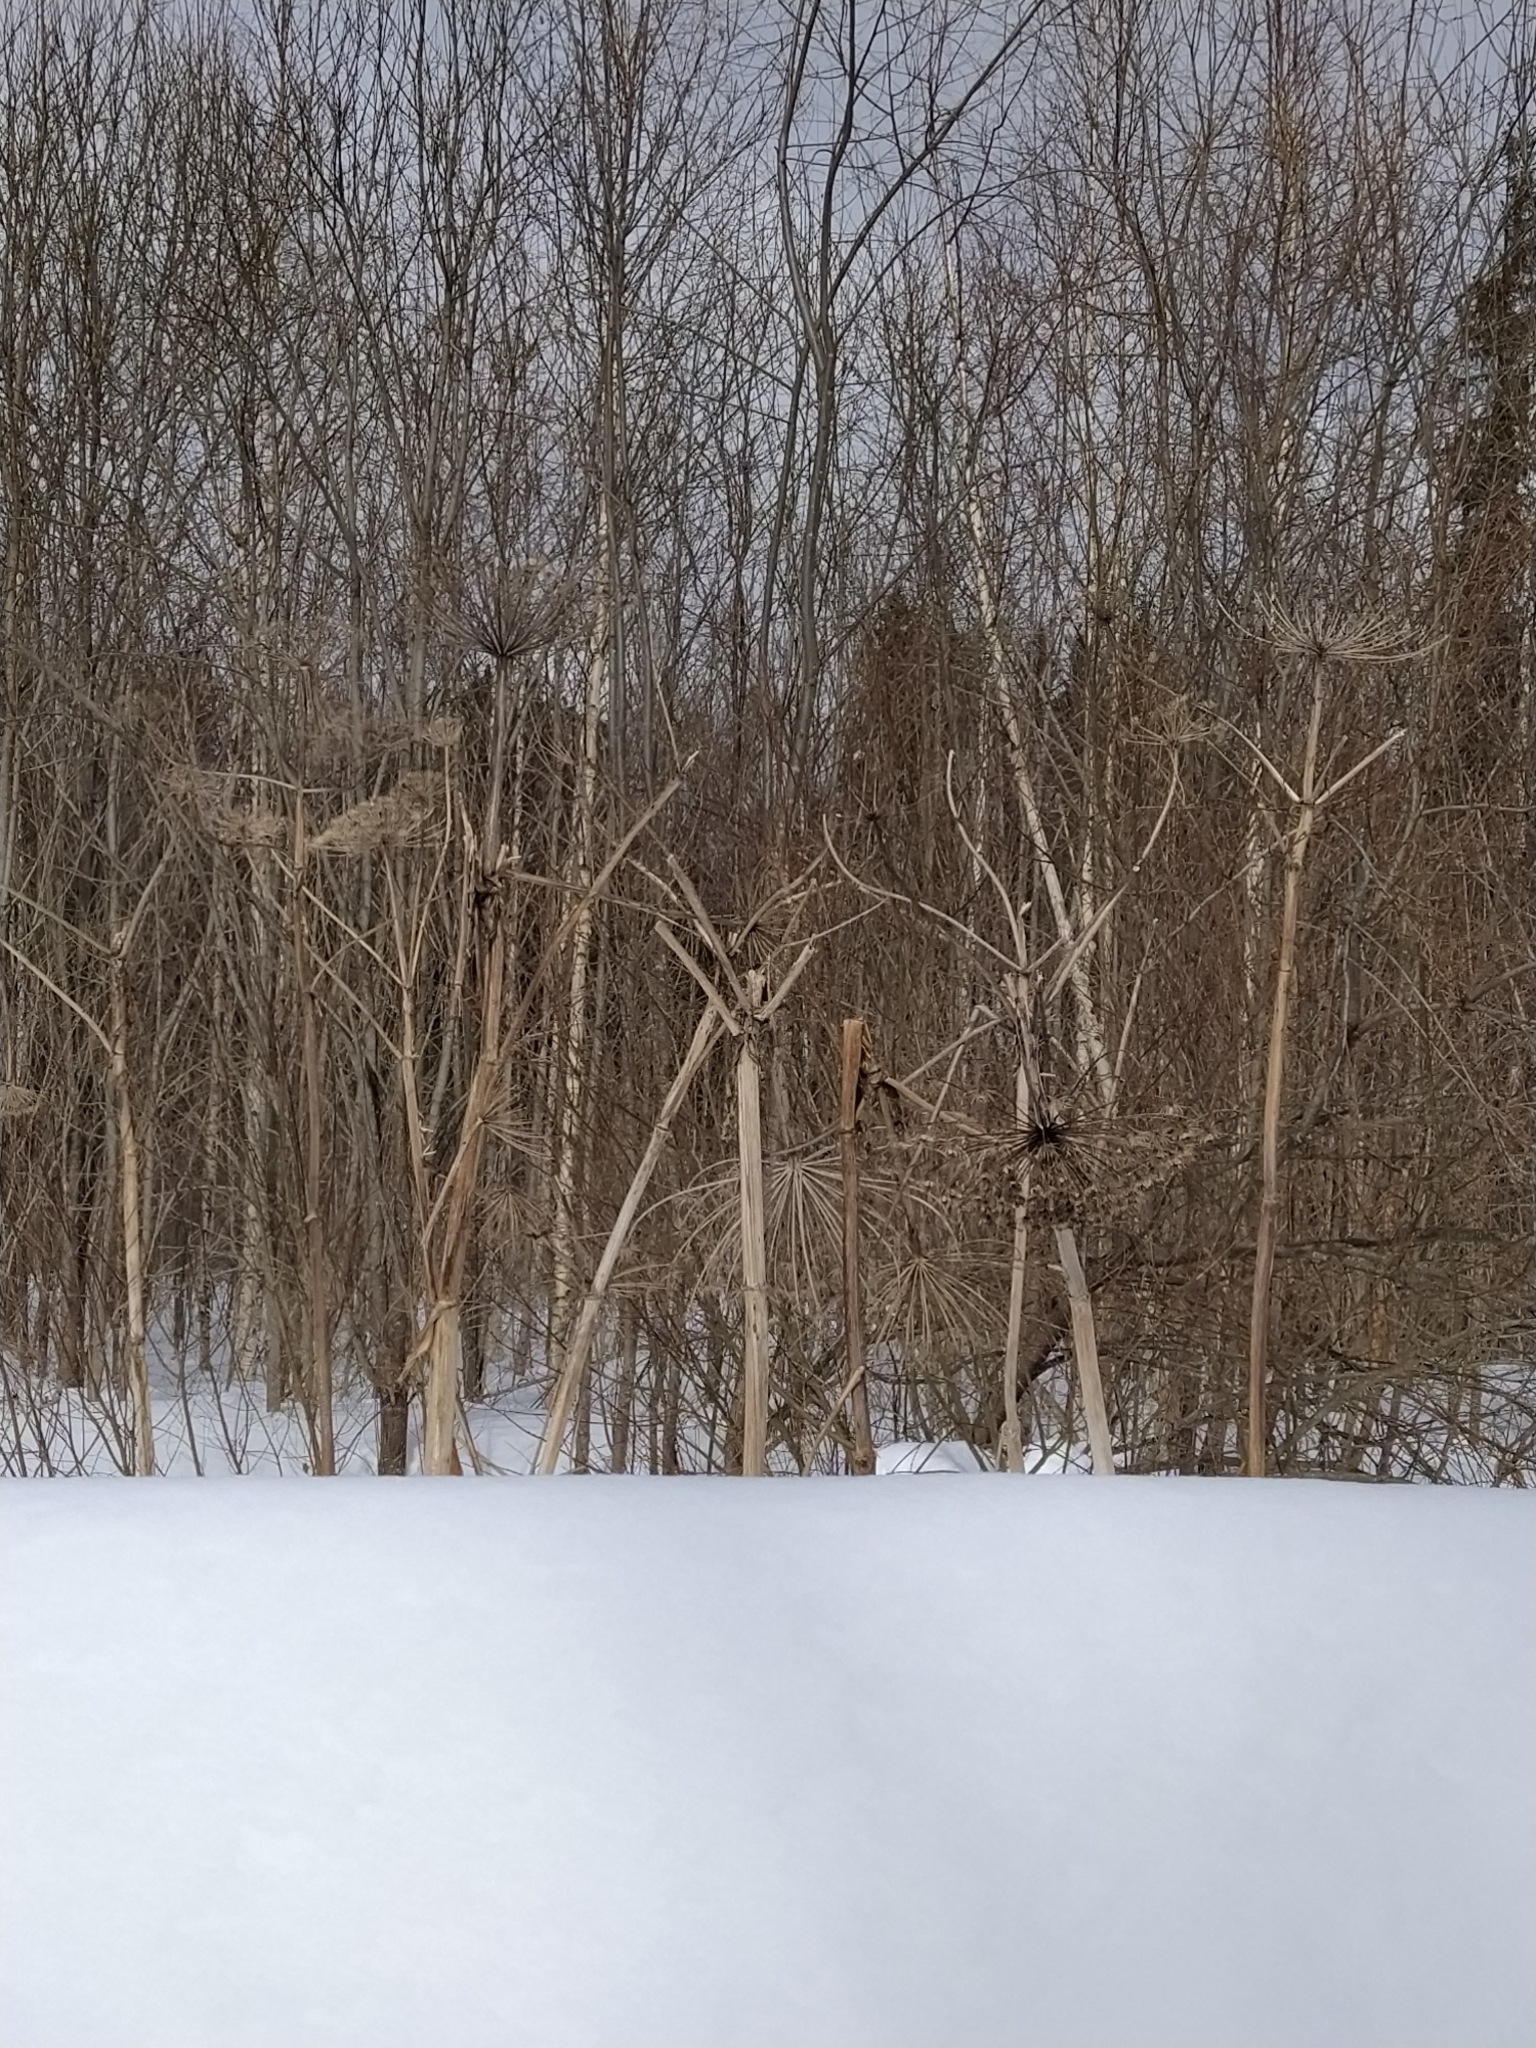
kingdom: Plantae
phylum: Tracheophyta
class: Magnoliopsida
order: Apiales
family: Apiaceae
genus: Heracleum
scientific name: Heracleum sosnowskyi
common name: Sosnowsky's hogweed
